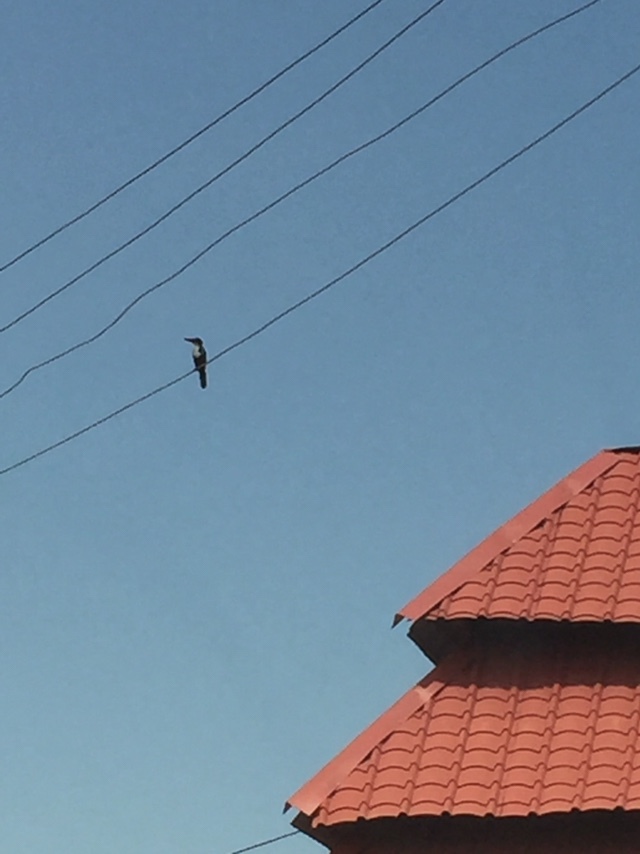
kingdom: Animalia
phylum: Chordata
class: Aves
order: Coraciiformes
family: Alcedinidae
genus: Halcyon
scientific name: Halcyon smyrnensis
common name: White-throated kingfisher
